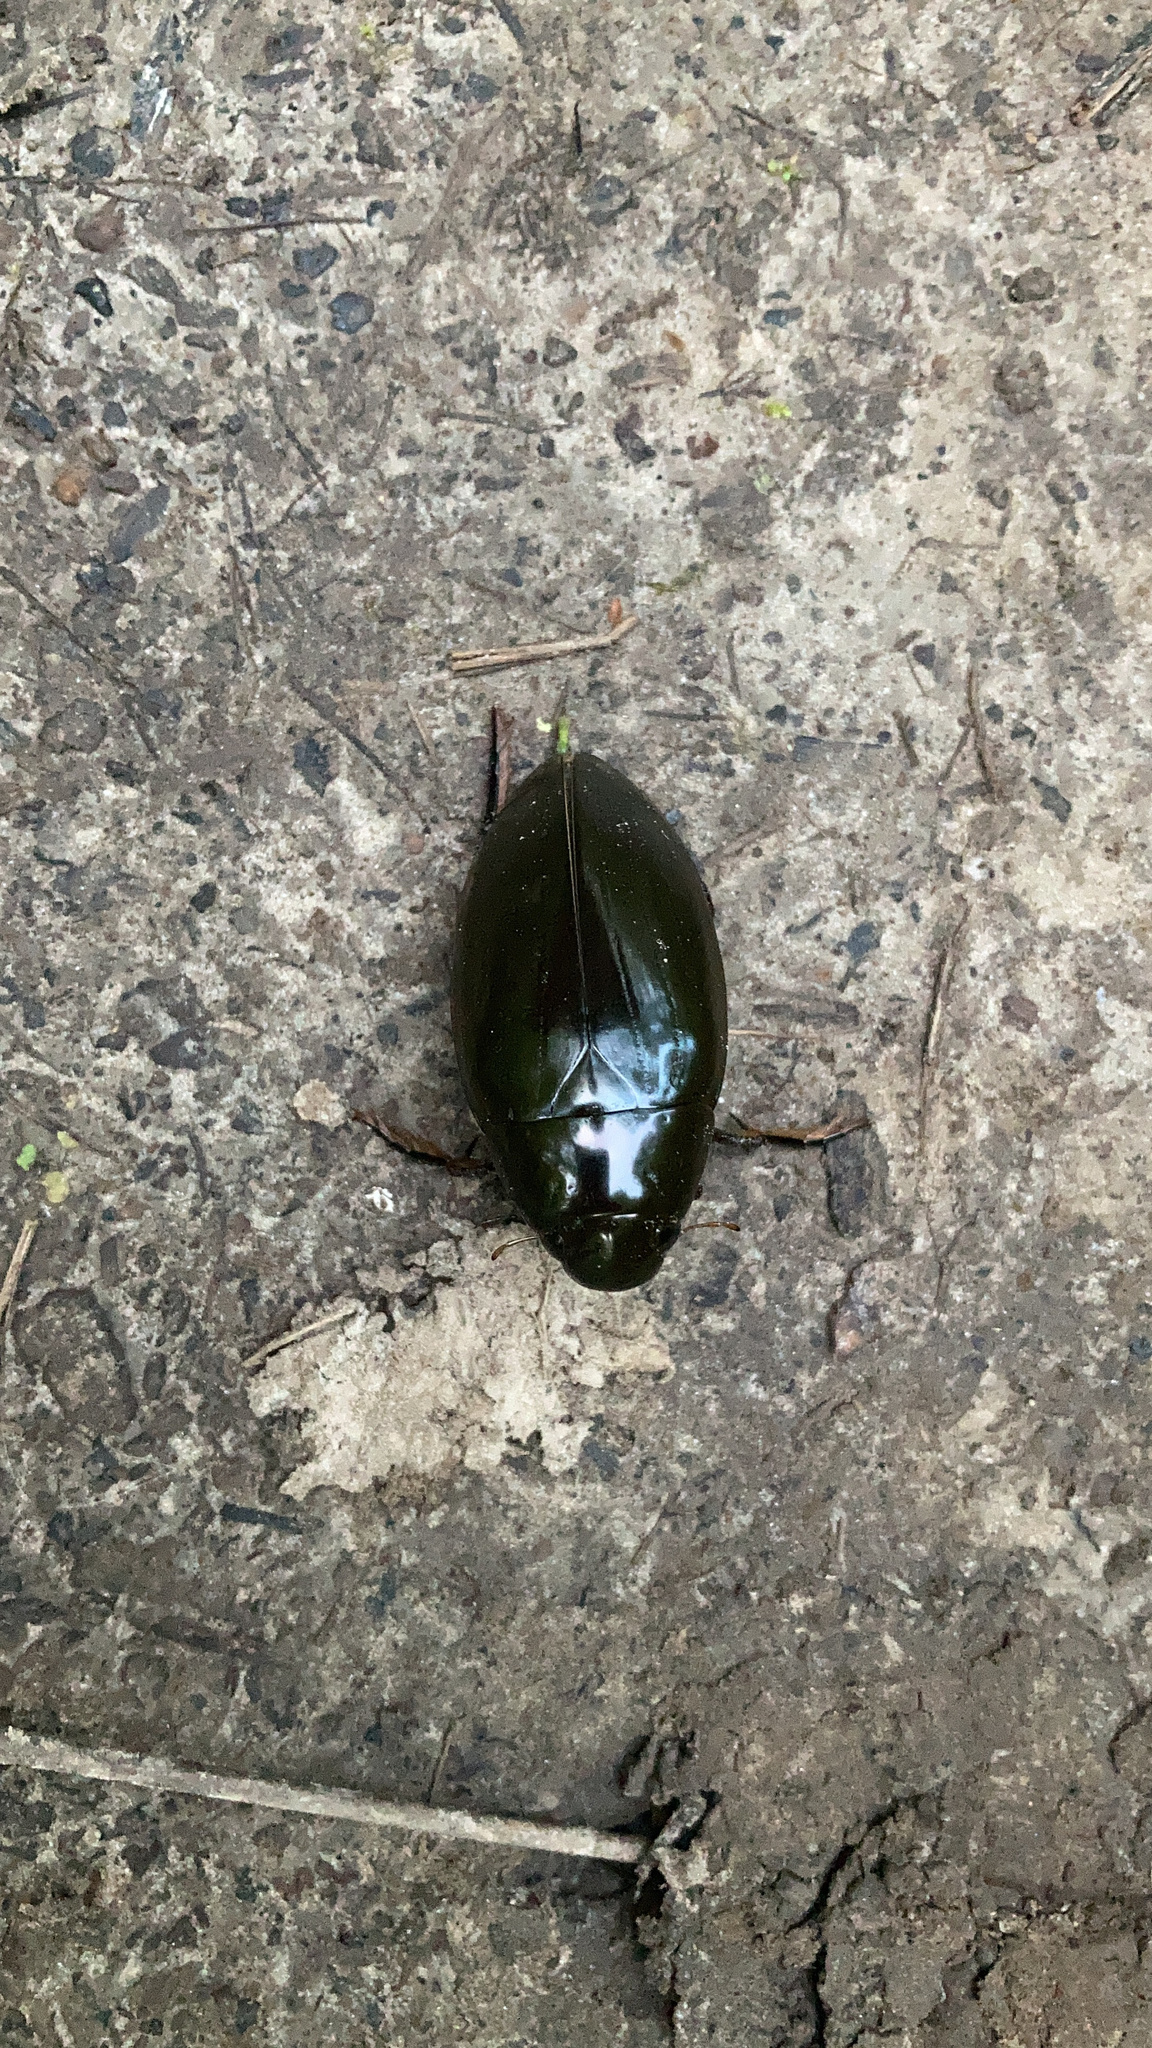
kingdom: Animalia
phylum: Arthropoda
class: Insecta
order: Coleoptera
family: Hydrophilidae
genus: Hydrophilus
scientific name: Hydrophilus triangularis
